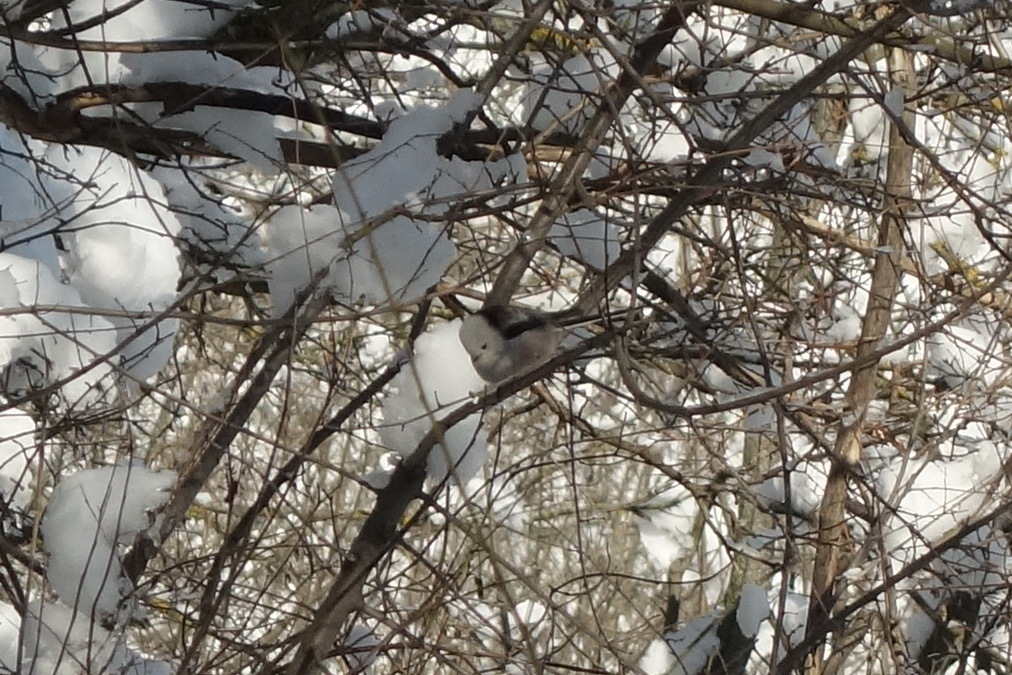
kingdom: Animalia
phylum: Chordata
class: Aves
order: Passeriformes
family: Aegithalidae
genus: Aegithalos
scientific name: Aegithalos caudatus
